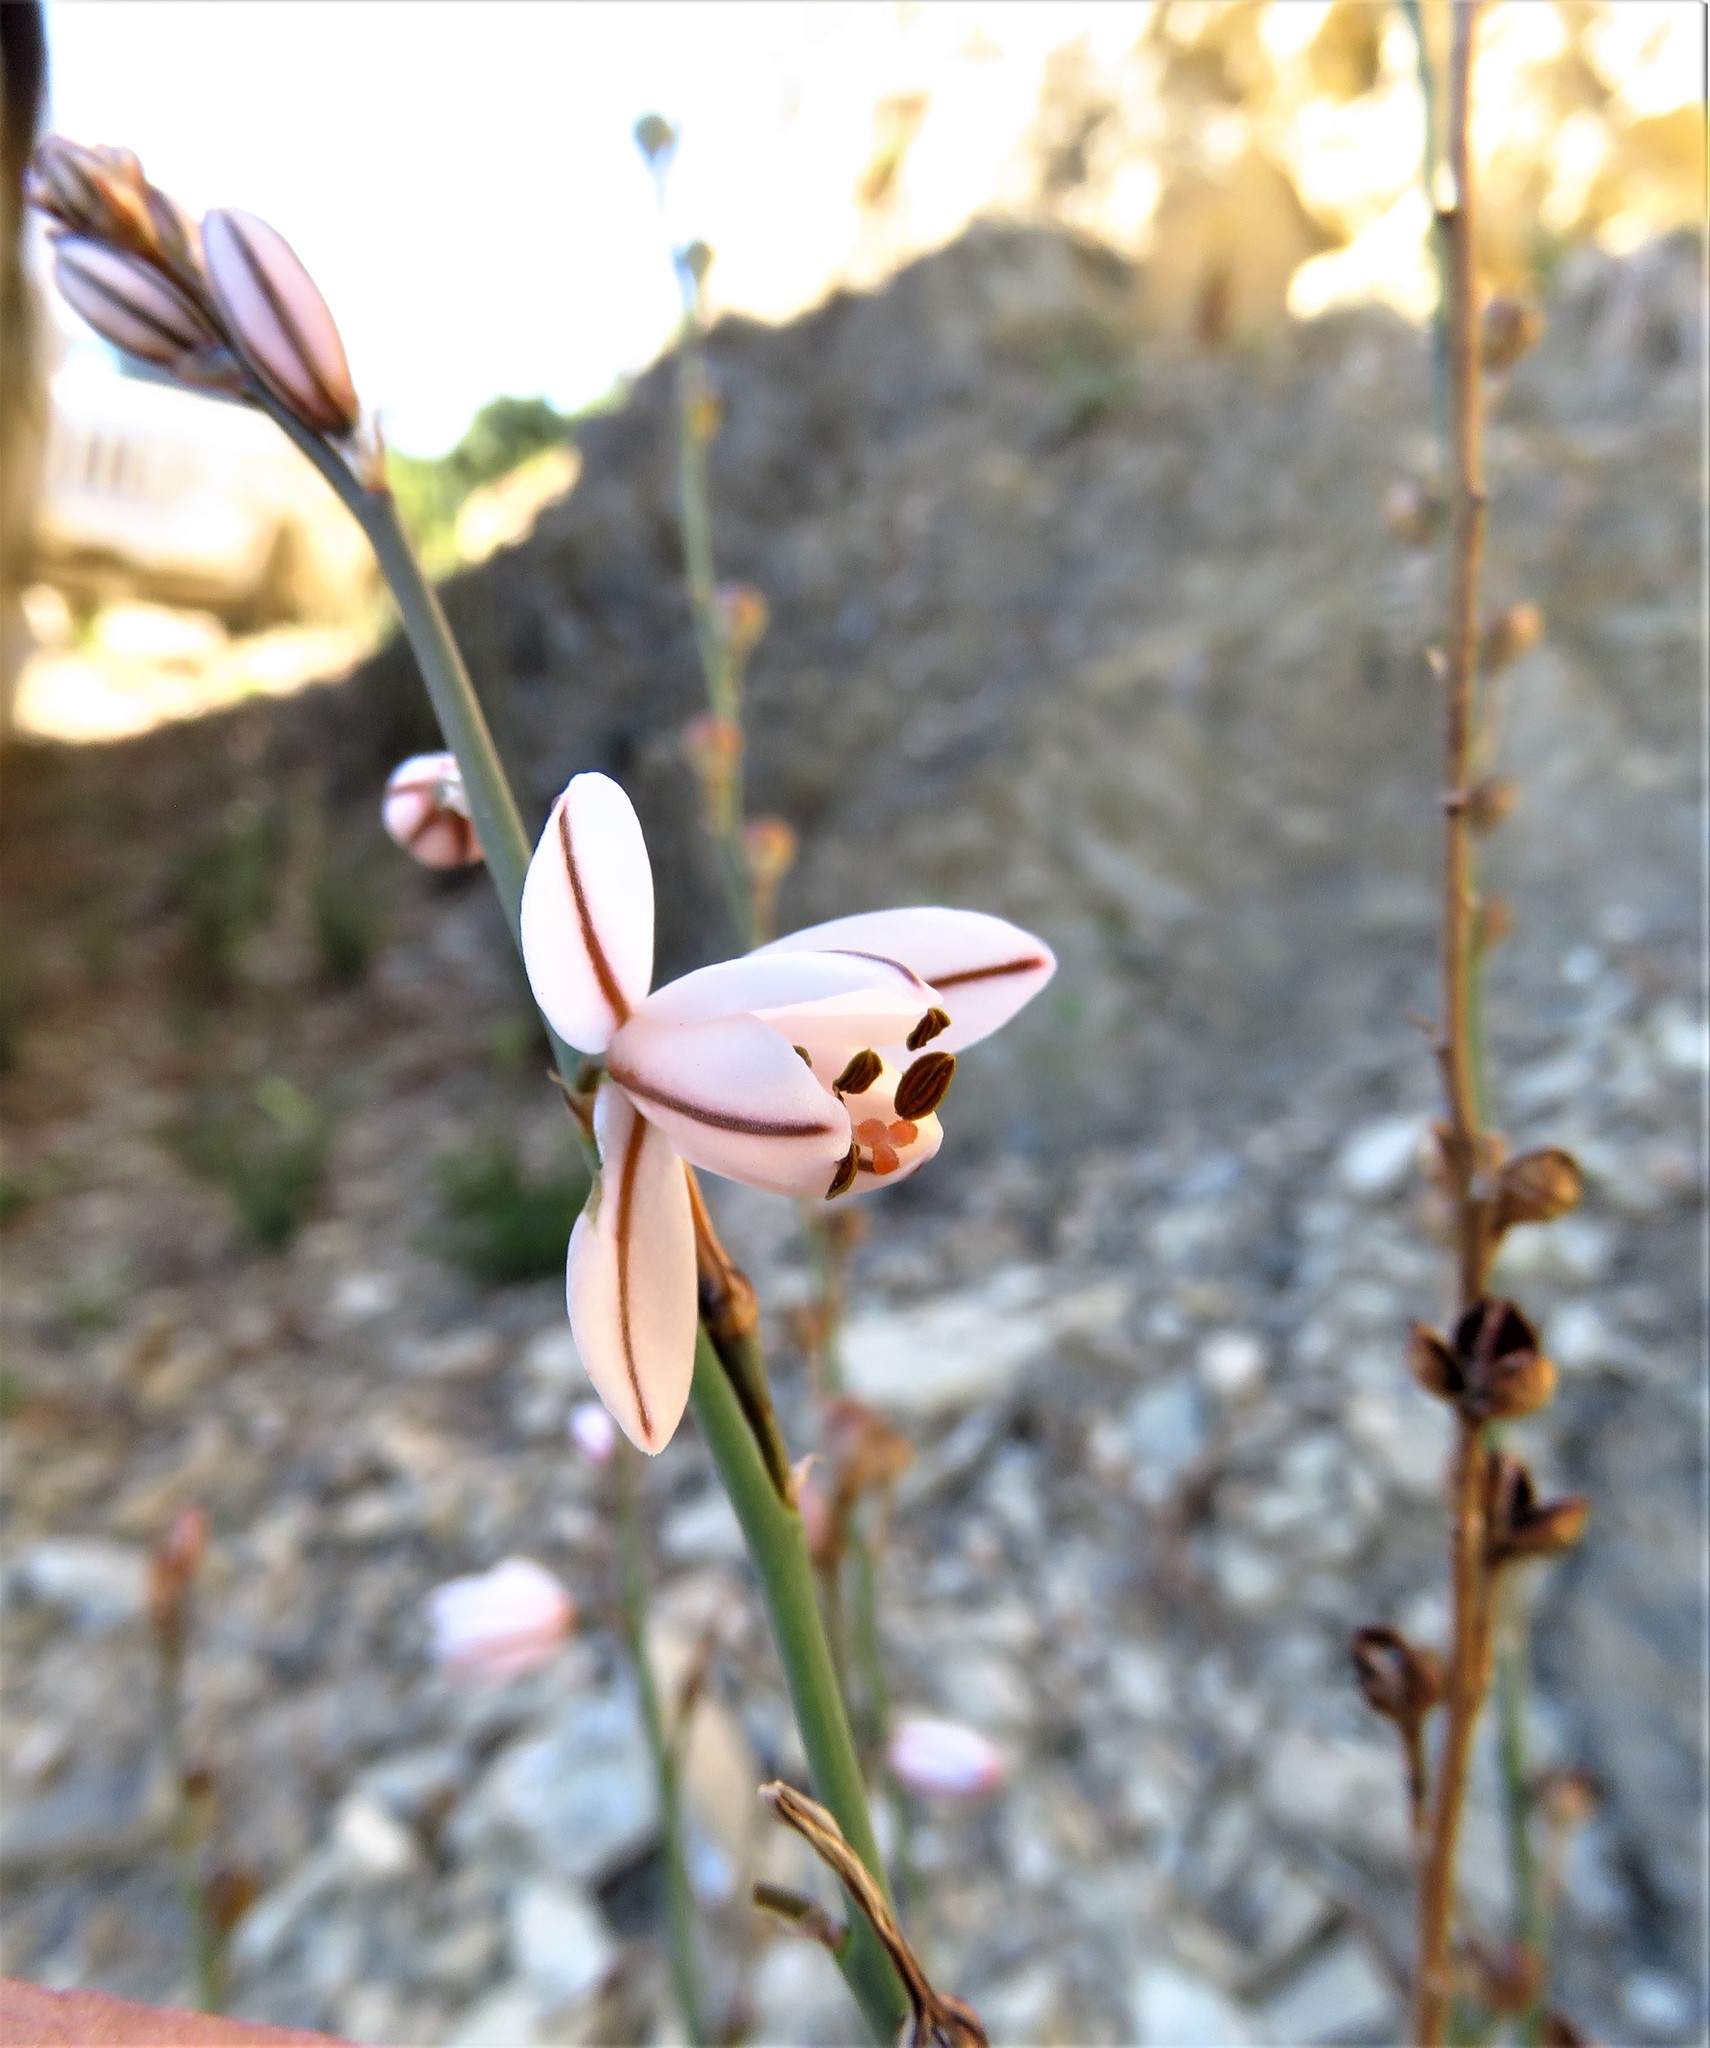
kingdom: Plantae
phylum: Tracheophyta
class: Liliopsida
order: Asparagales
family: Asphodelaceae
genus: Asphodelus
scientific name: Asphodelus fistulosus
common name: Onionweed
